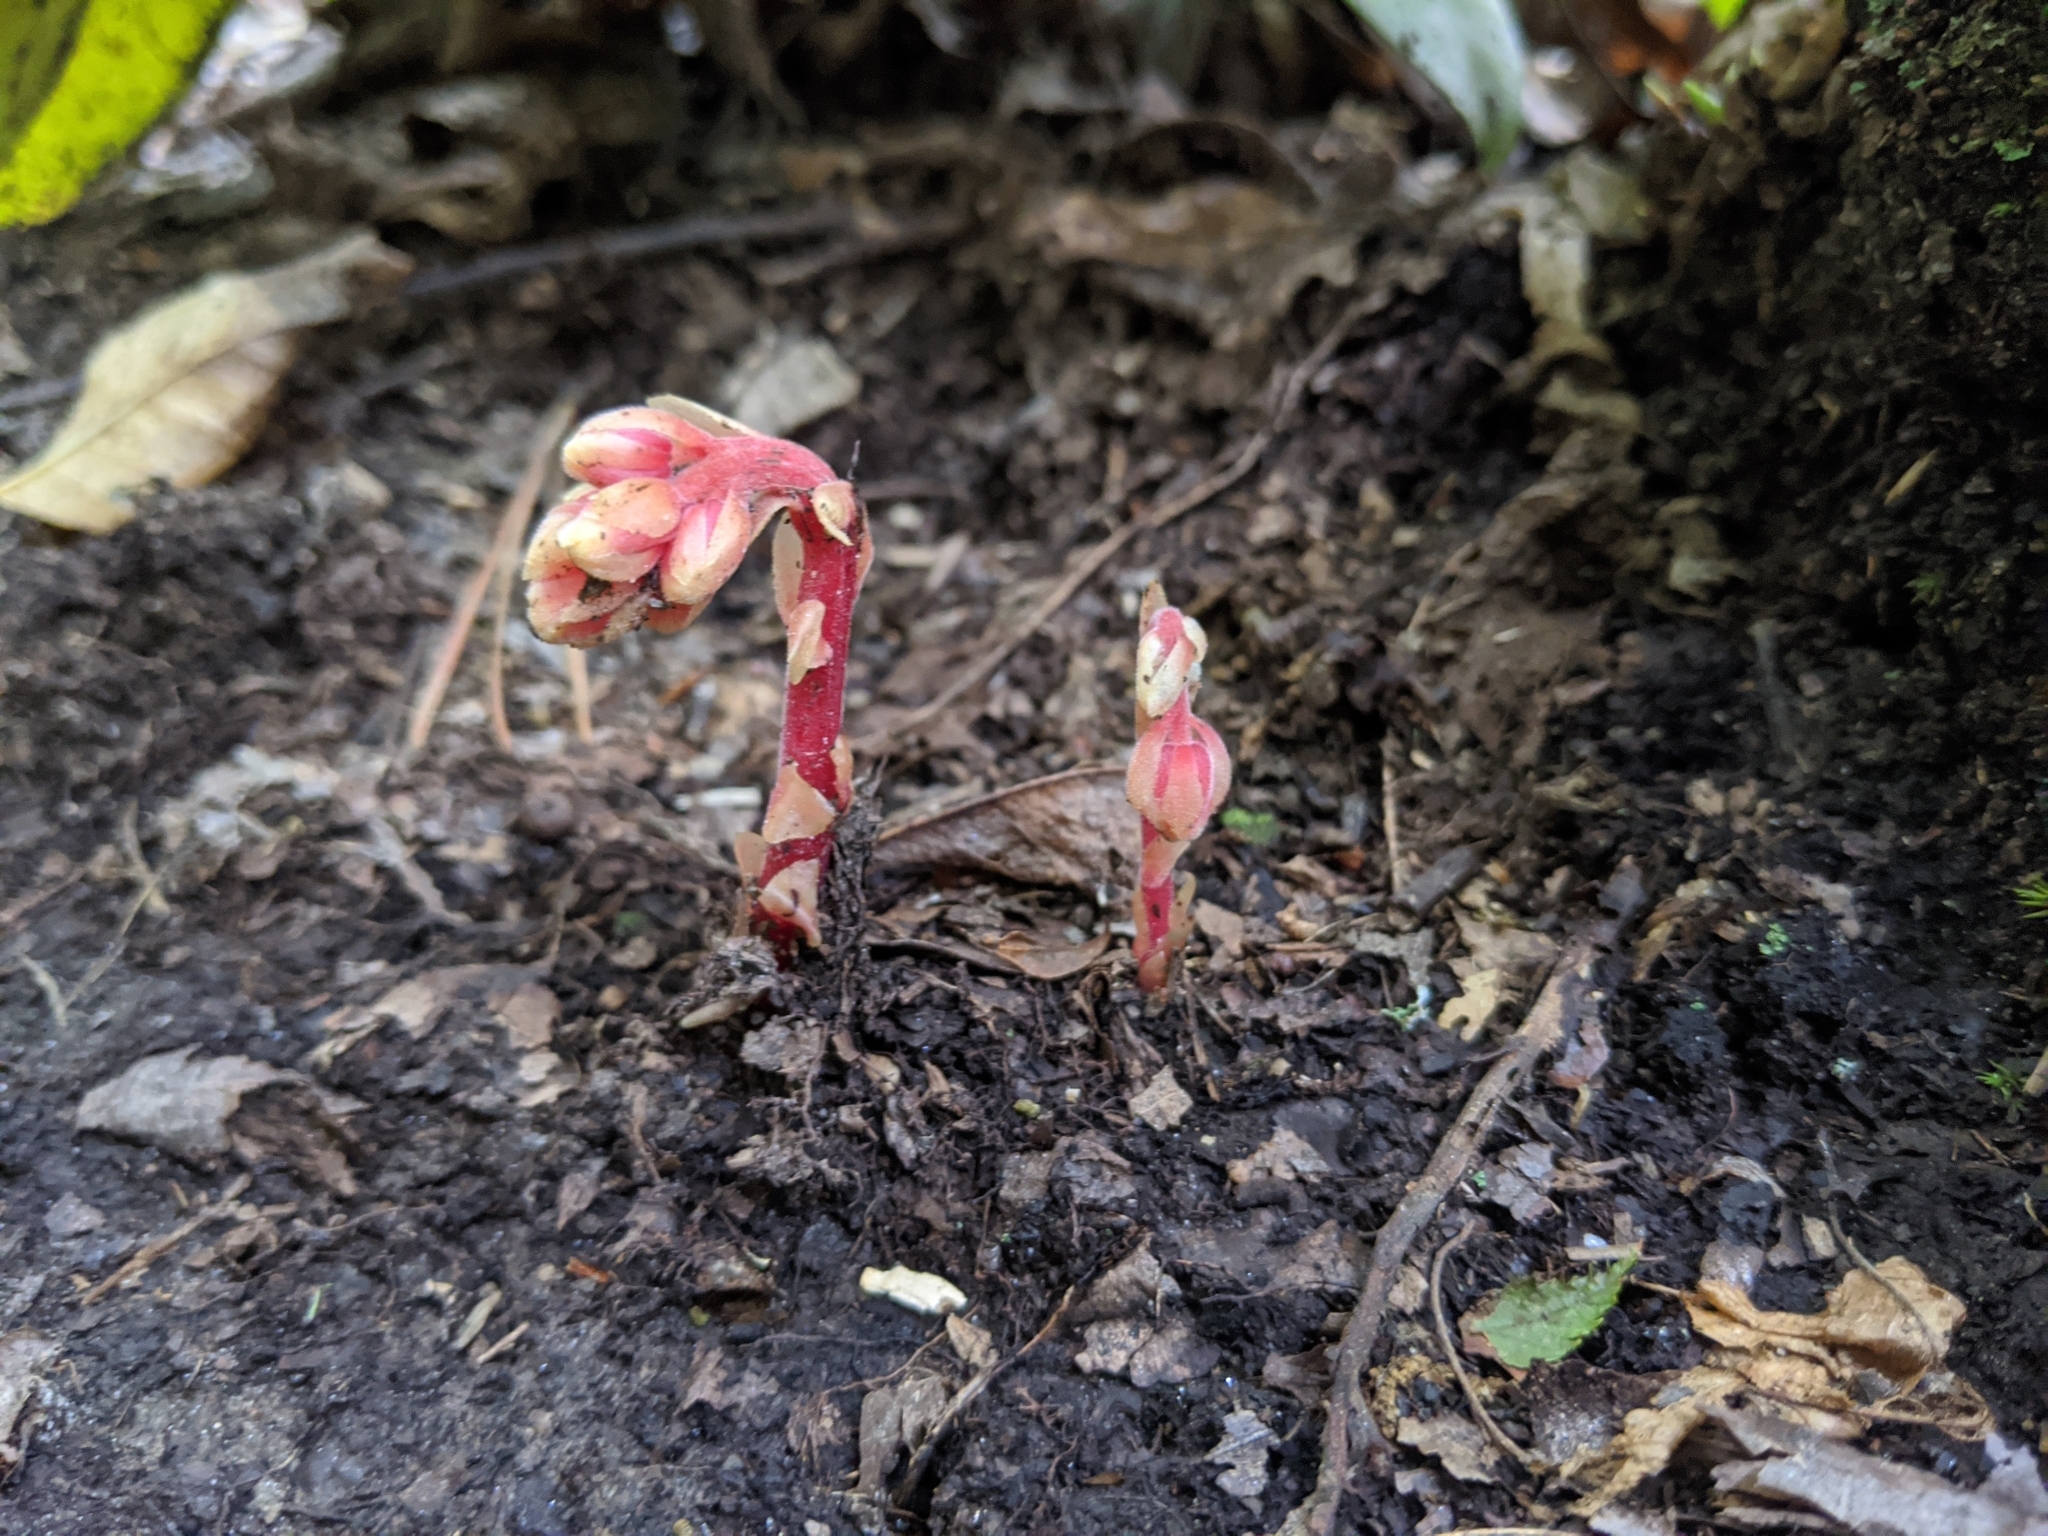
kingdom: Plantae
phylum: Tracheophyta
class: Magnoliopsida
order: Ericales
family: Ericaceae
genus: Hypopitys
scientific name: Hypopitys monotropa
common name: Yellow bird's-nest
